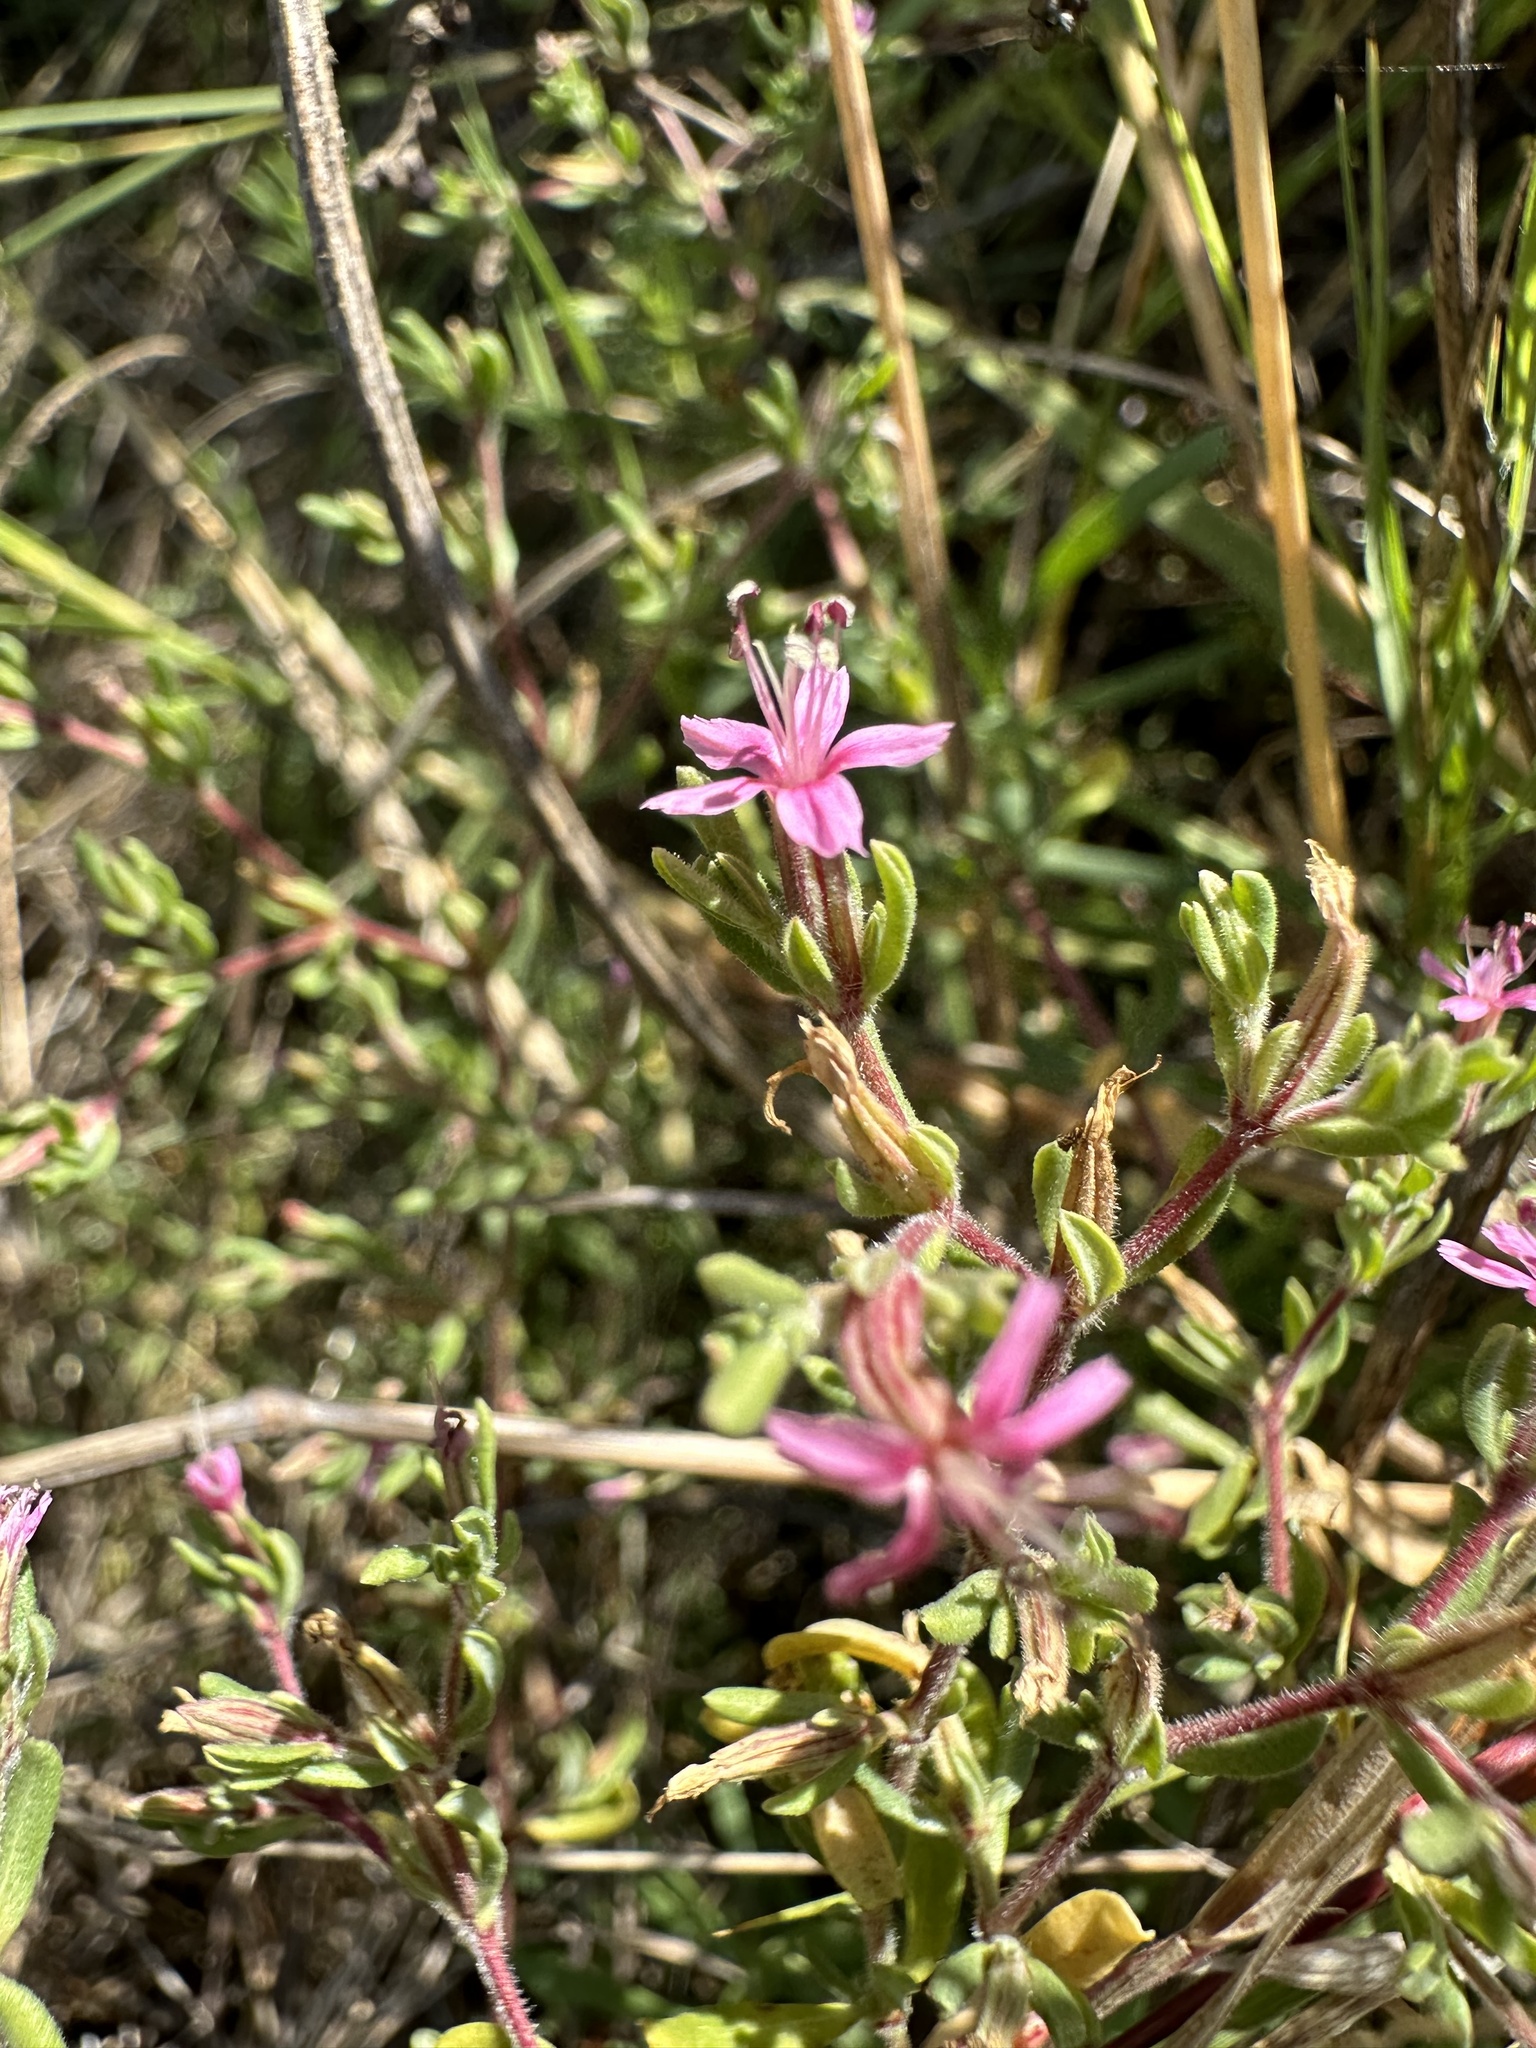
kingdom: Plantae
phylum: Tracheophyta
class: Magnoliopsida
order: Caryophyllales
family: Frankeniaceae
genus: Frankenia
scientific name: Frankenia salina
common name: Alkali seaheath
